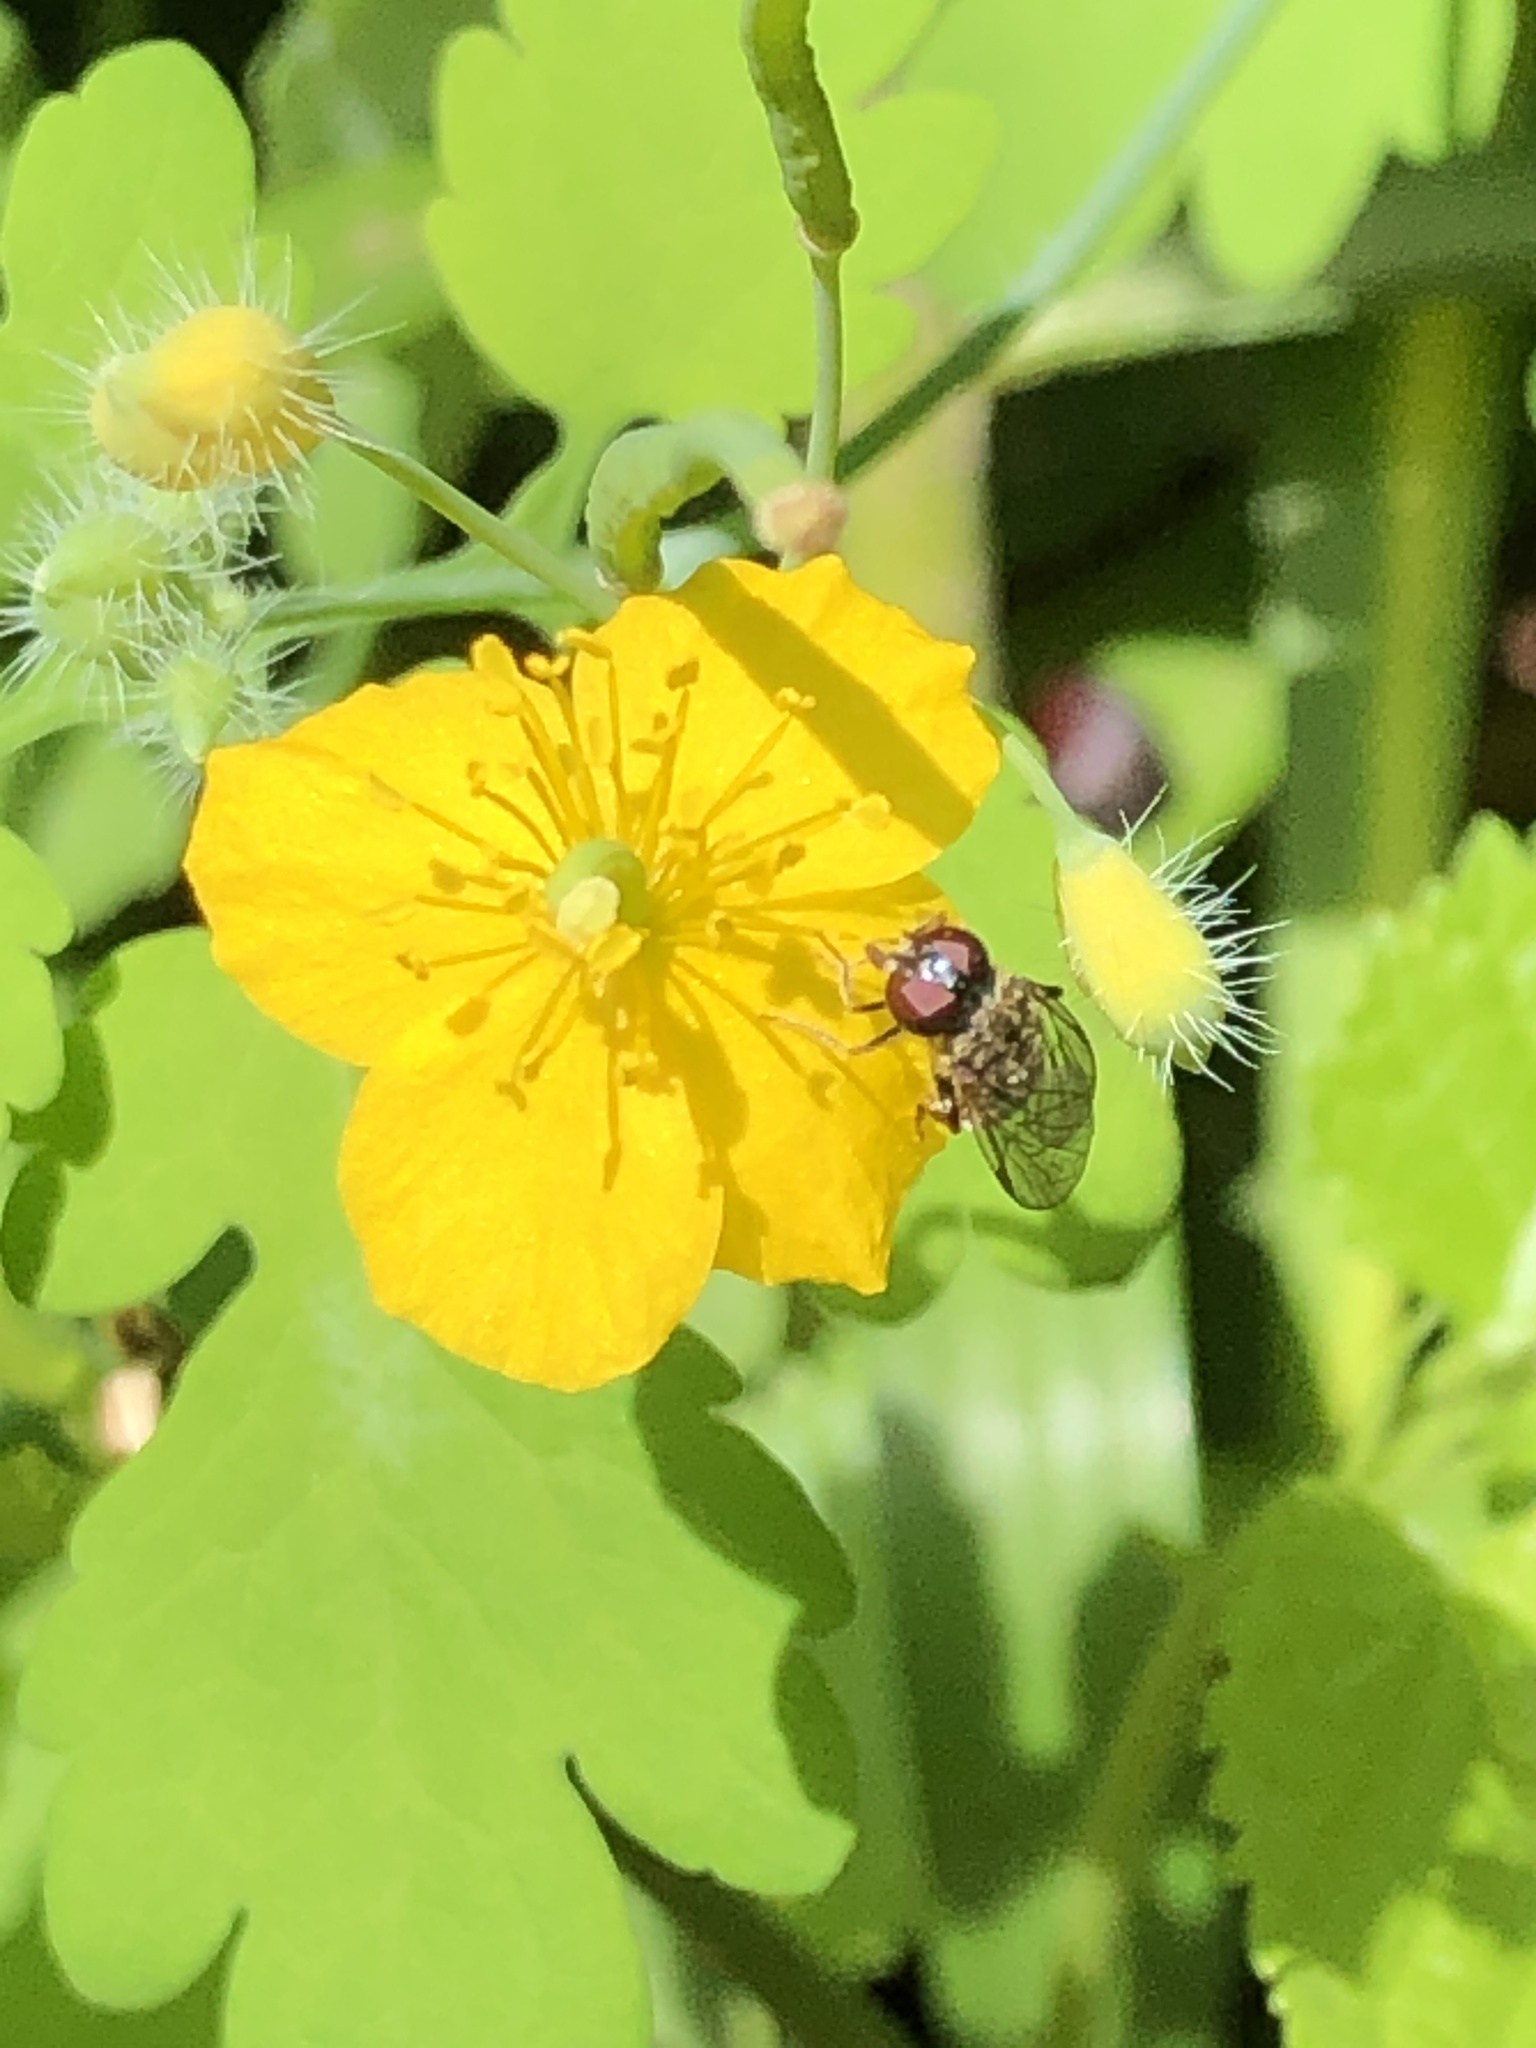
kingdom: Plantae
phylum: Tracheophyta
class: Magnoliopsida
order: Ranunculales
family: Papaveraceae
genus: Chelidonium
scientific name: Chelidonium majus
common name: Greater celandine
